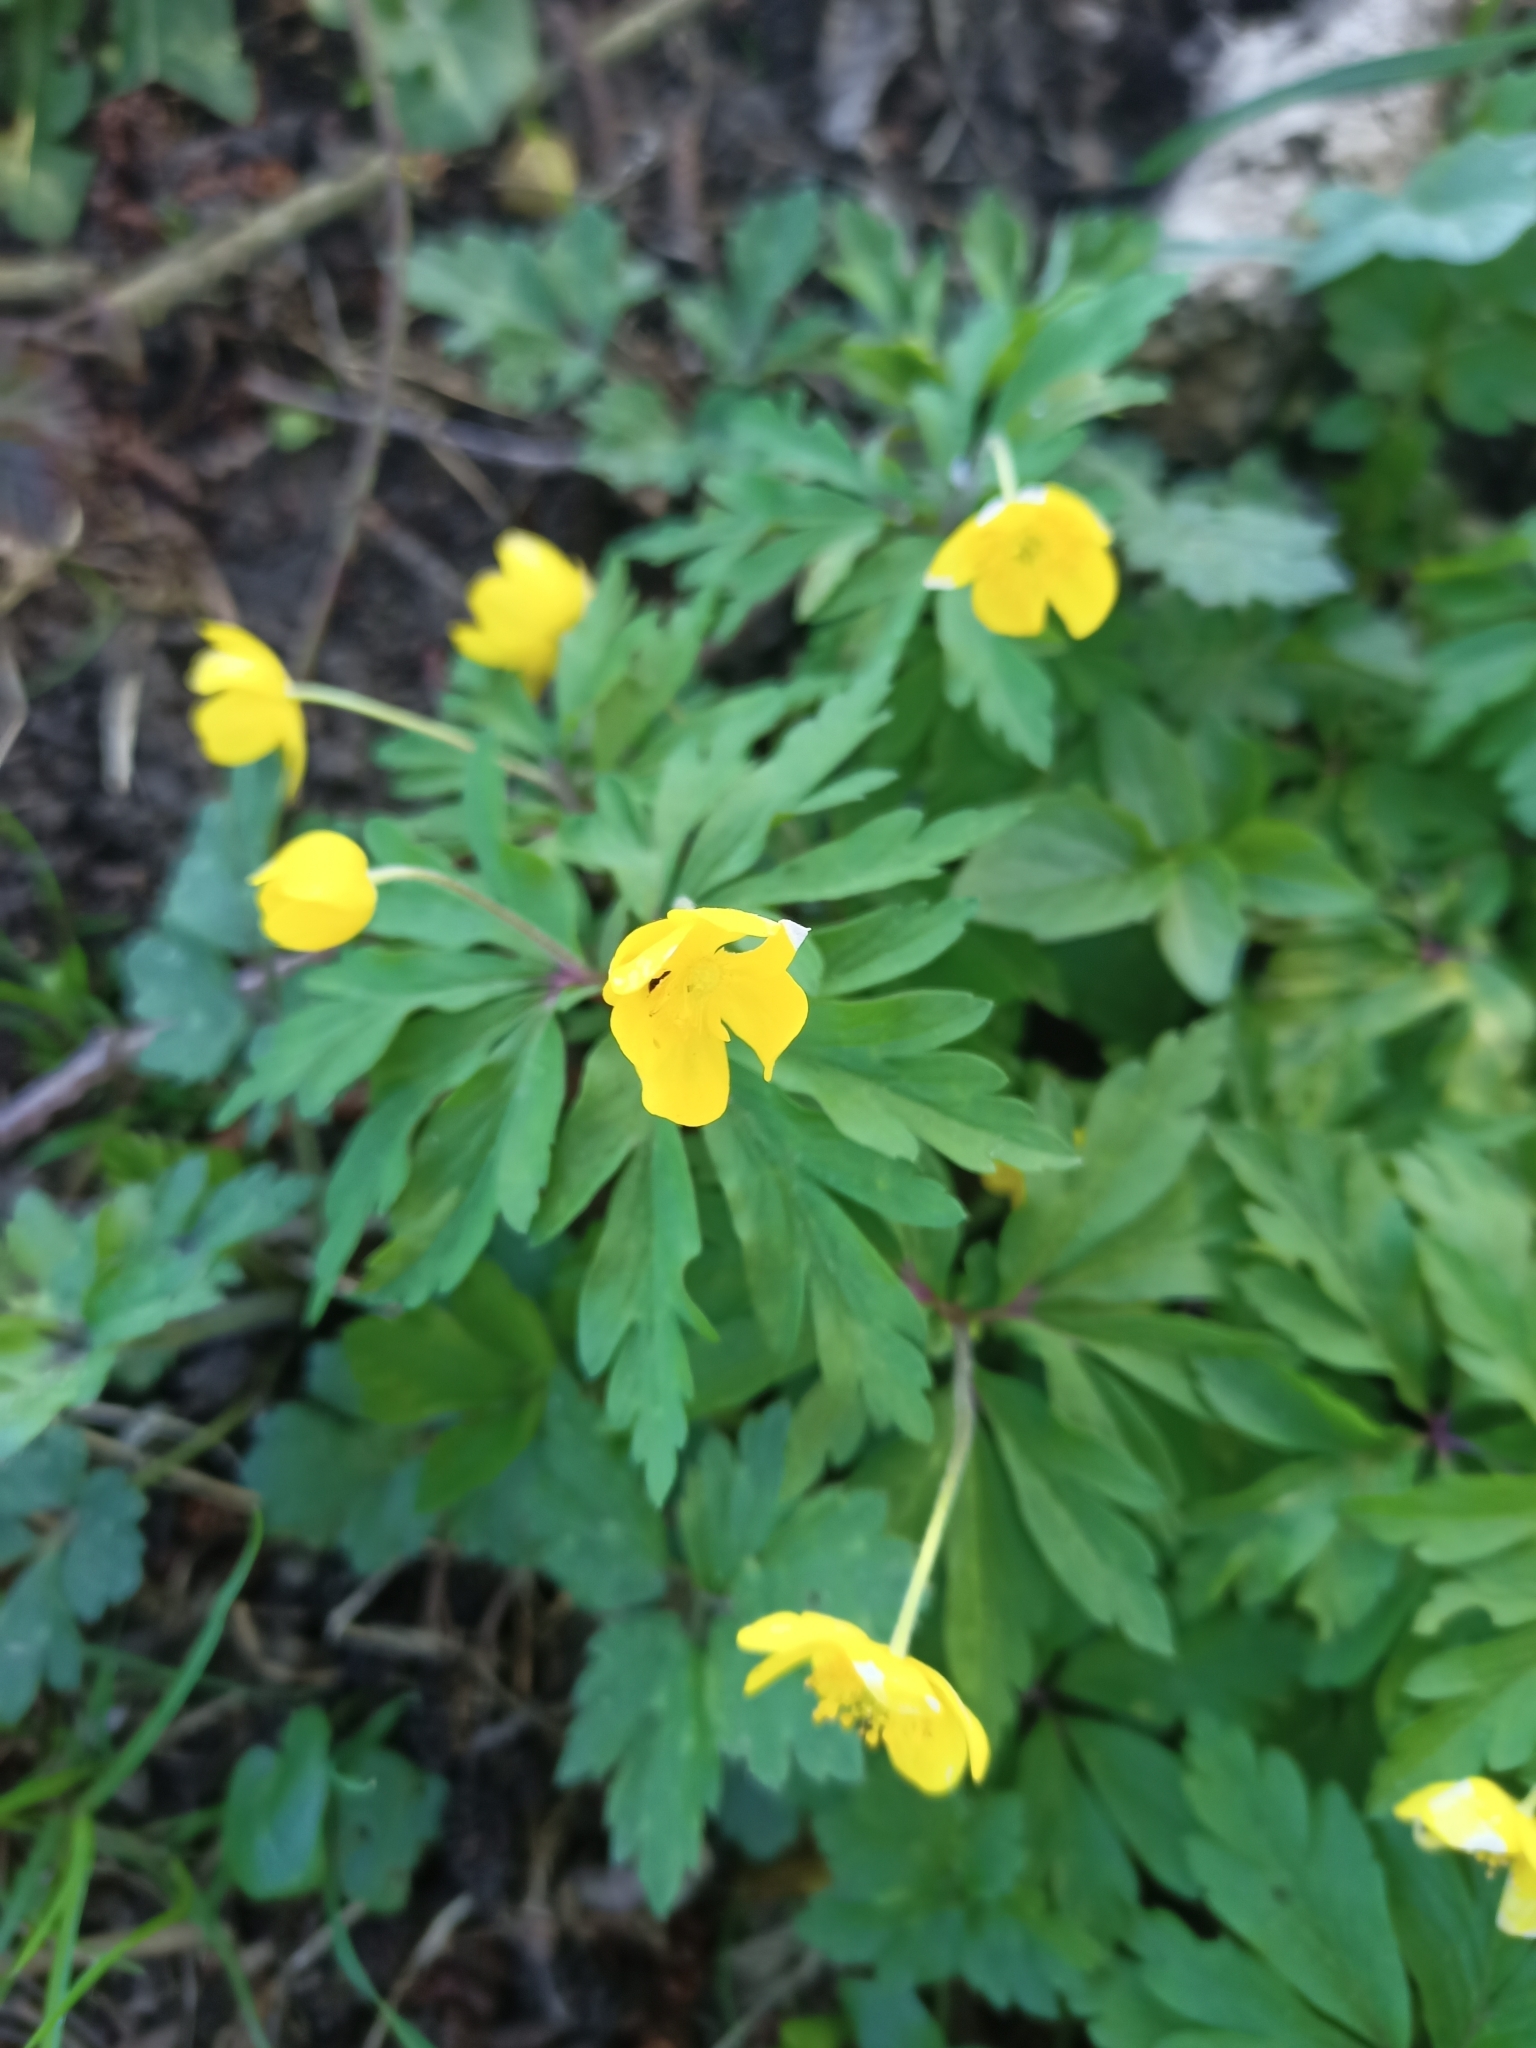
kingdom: Plantae
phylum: Tracheophyta
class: Magnoliopsida
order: Ranunculales
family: Ranunculaceae
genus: Anemone
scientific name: Anemone ranunculoides
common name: Yellow anemone
